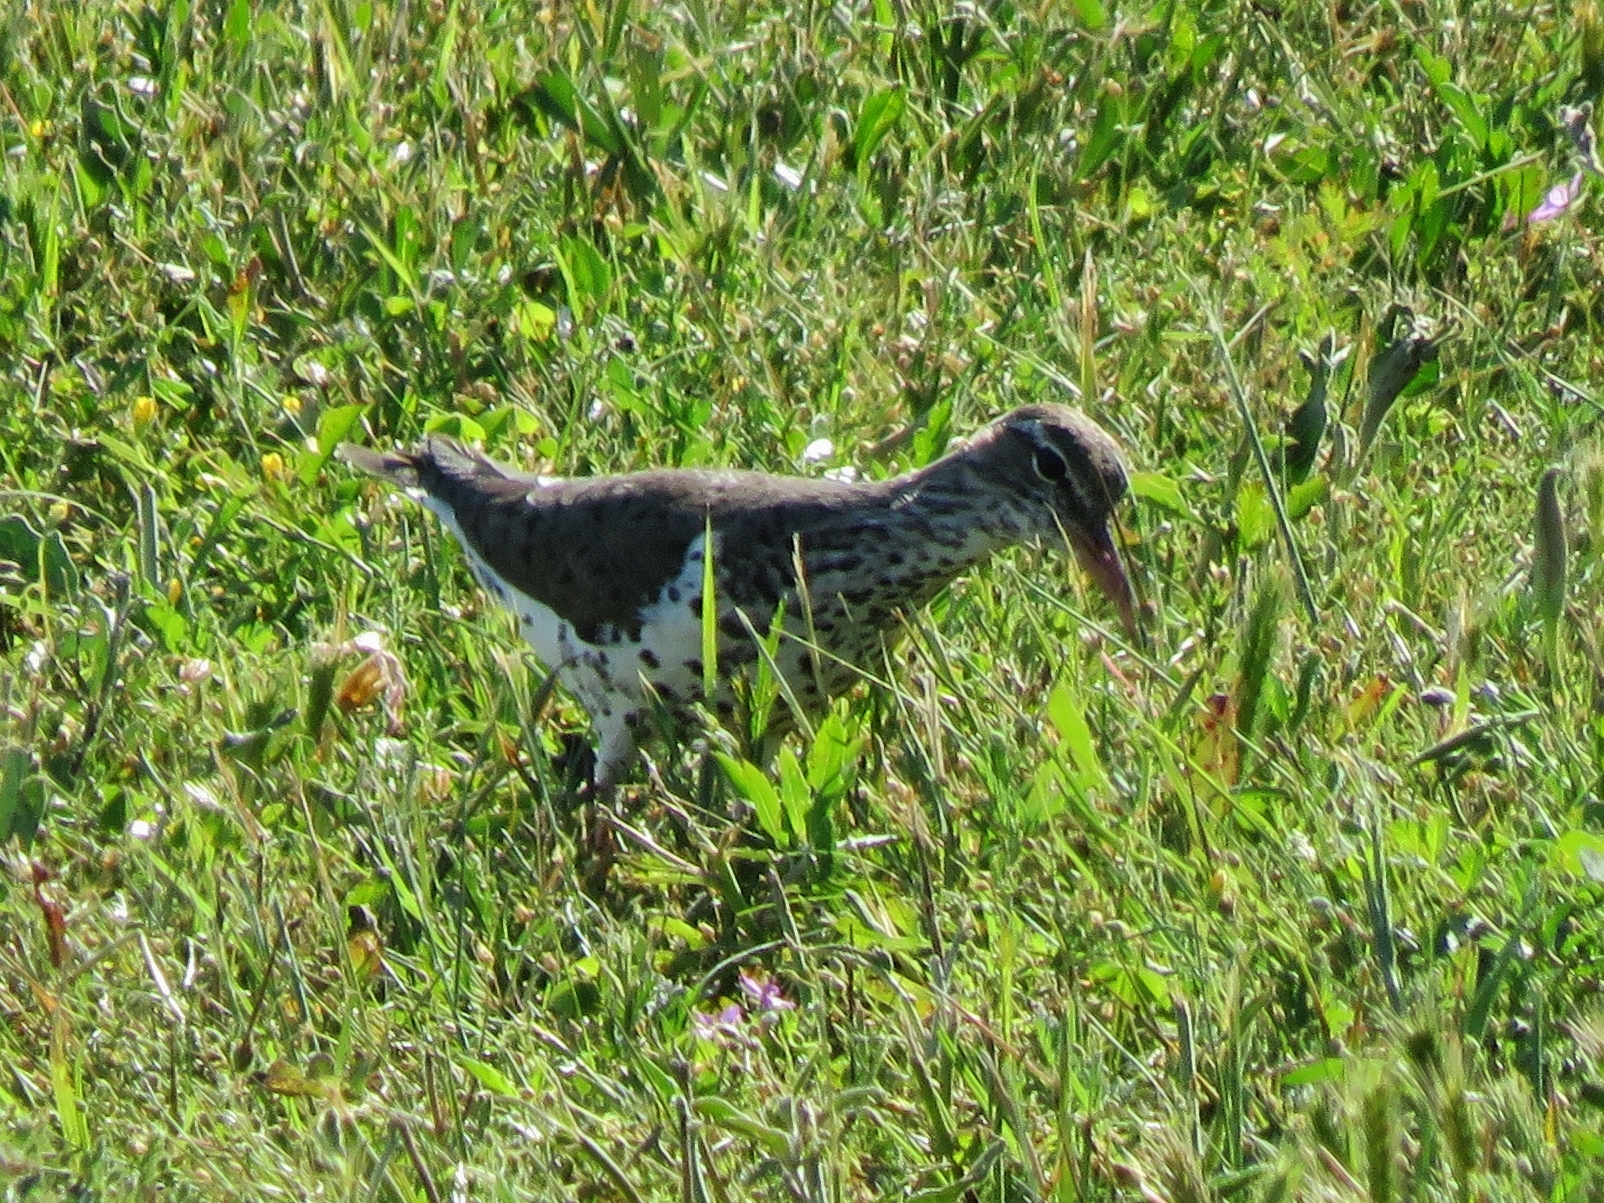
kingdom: Animalia
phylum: Chordata
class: Aves
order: Charadriiformes
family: Scolopacidae
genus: Actitis
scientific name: Actitis macularius
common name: Spotted sandpiper
